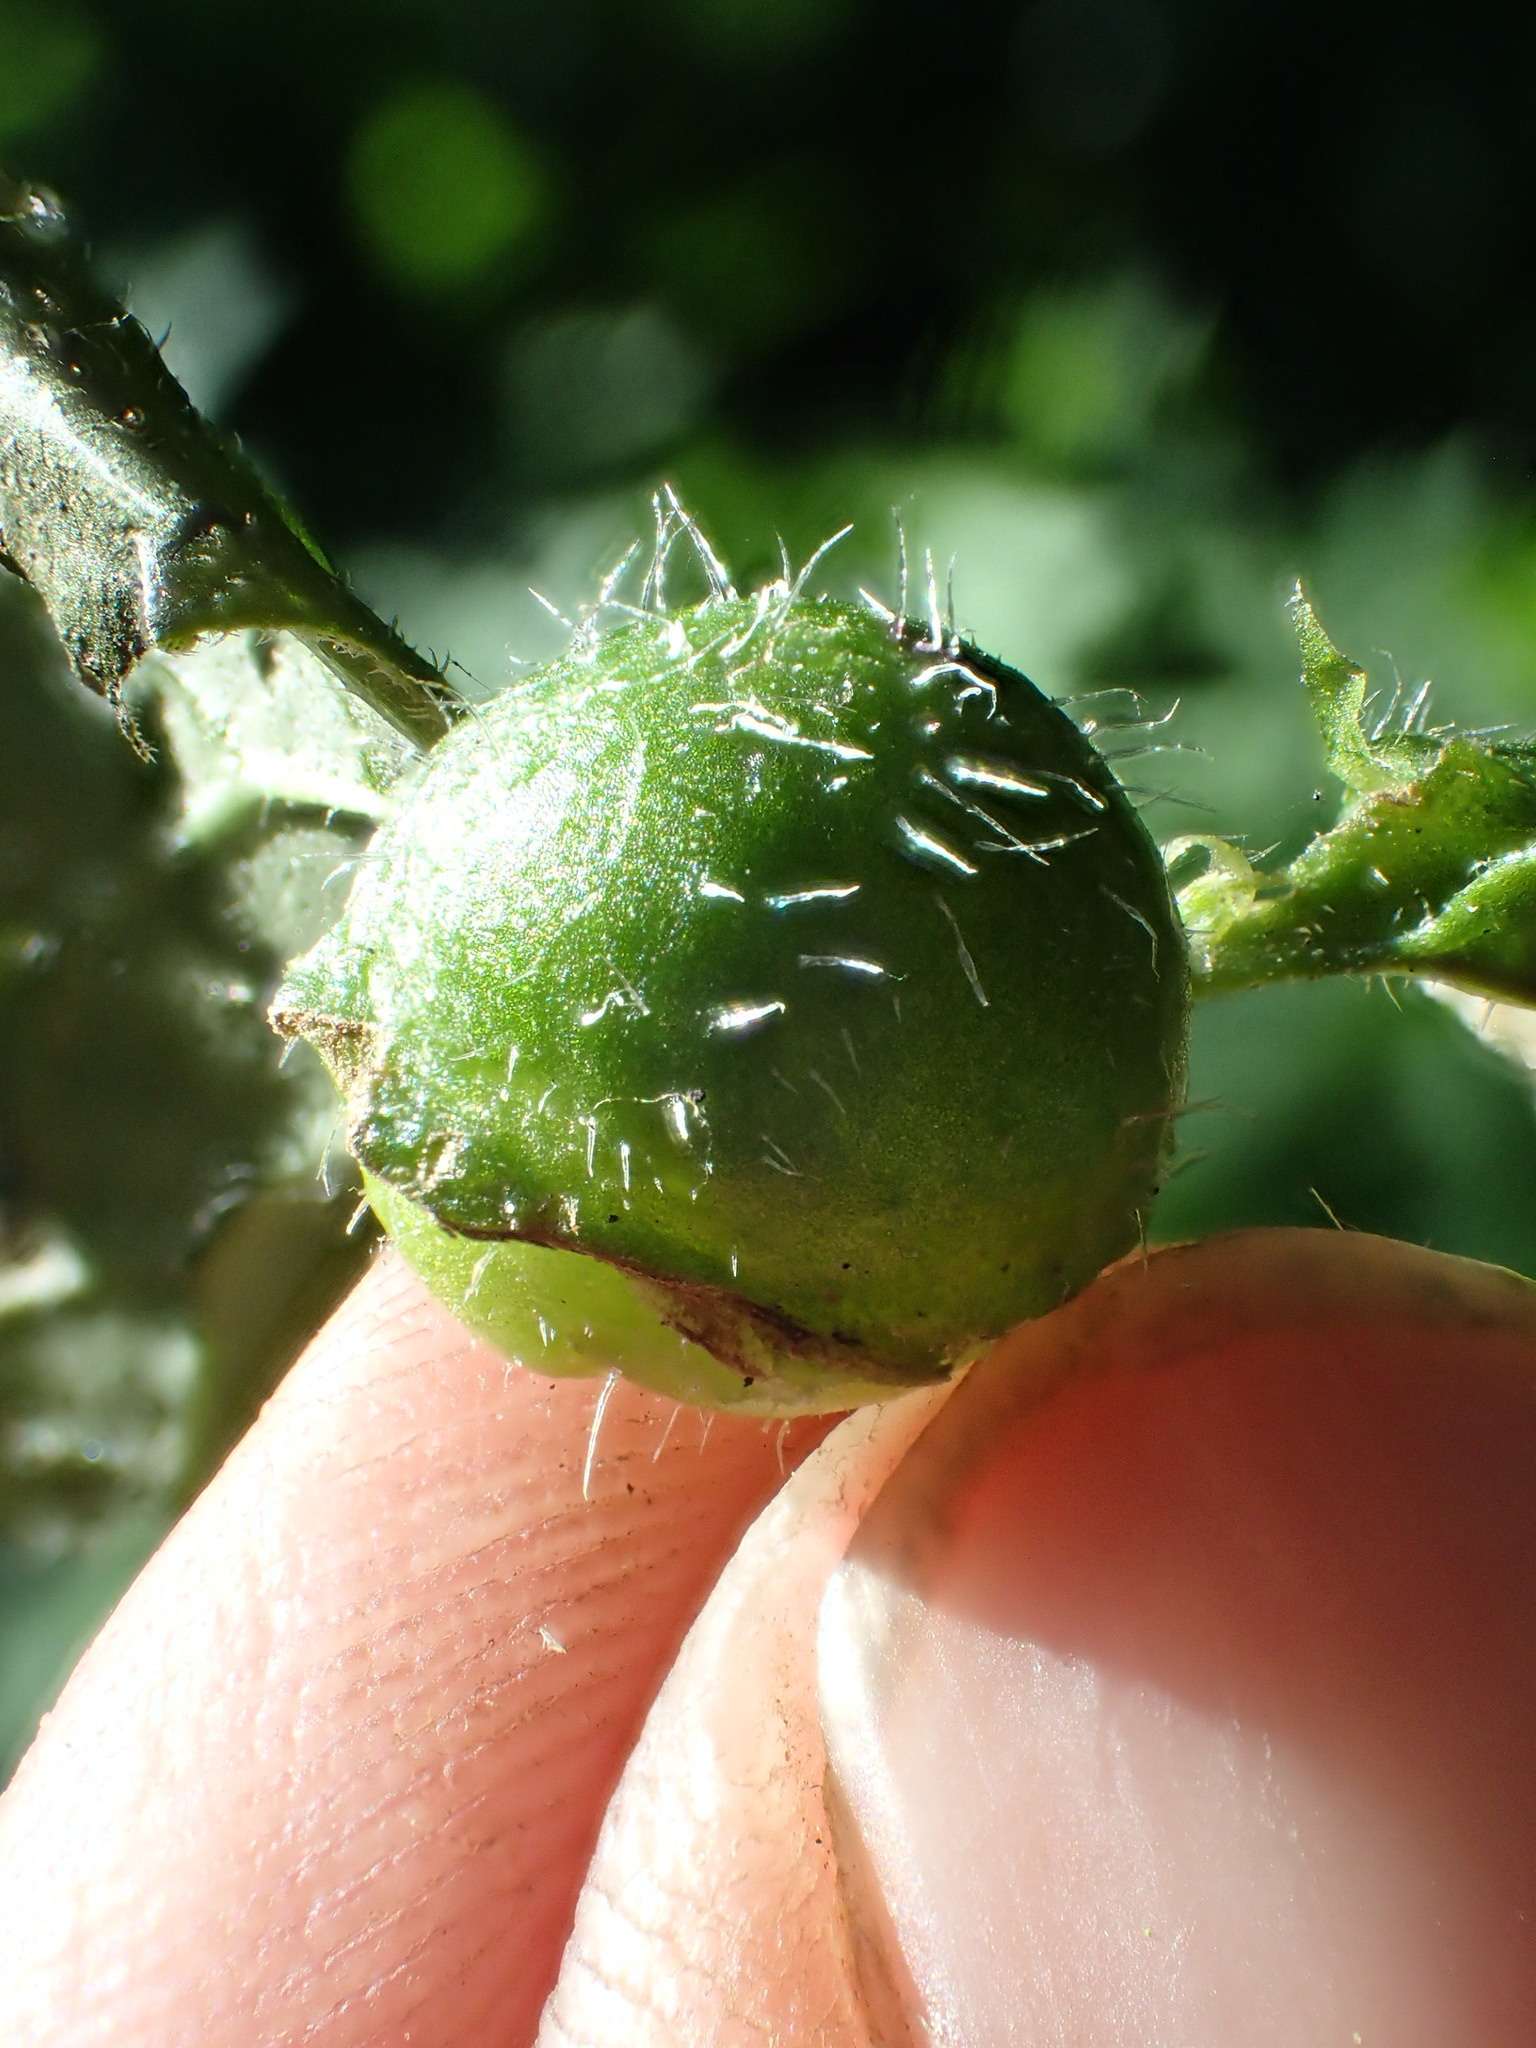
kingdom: Animalia
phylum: Arthropoda
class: Insecta
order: Hymenoptera
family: Cynipidae
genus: Liposthenes
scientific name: Liposthenes glechomae
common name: Gall wasp
